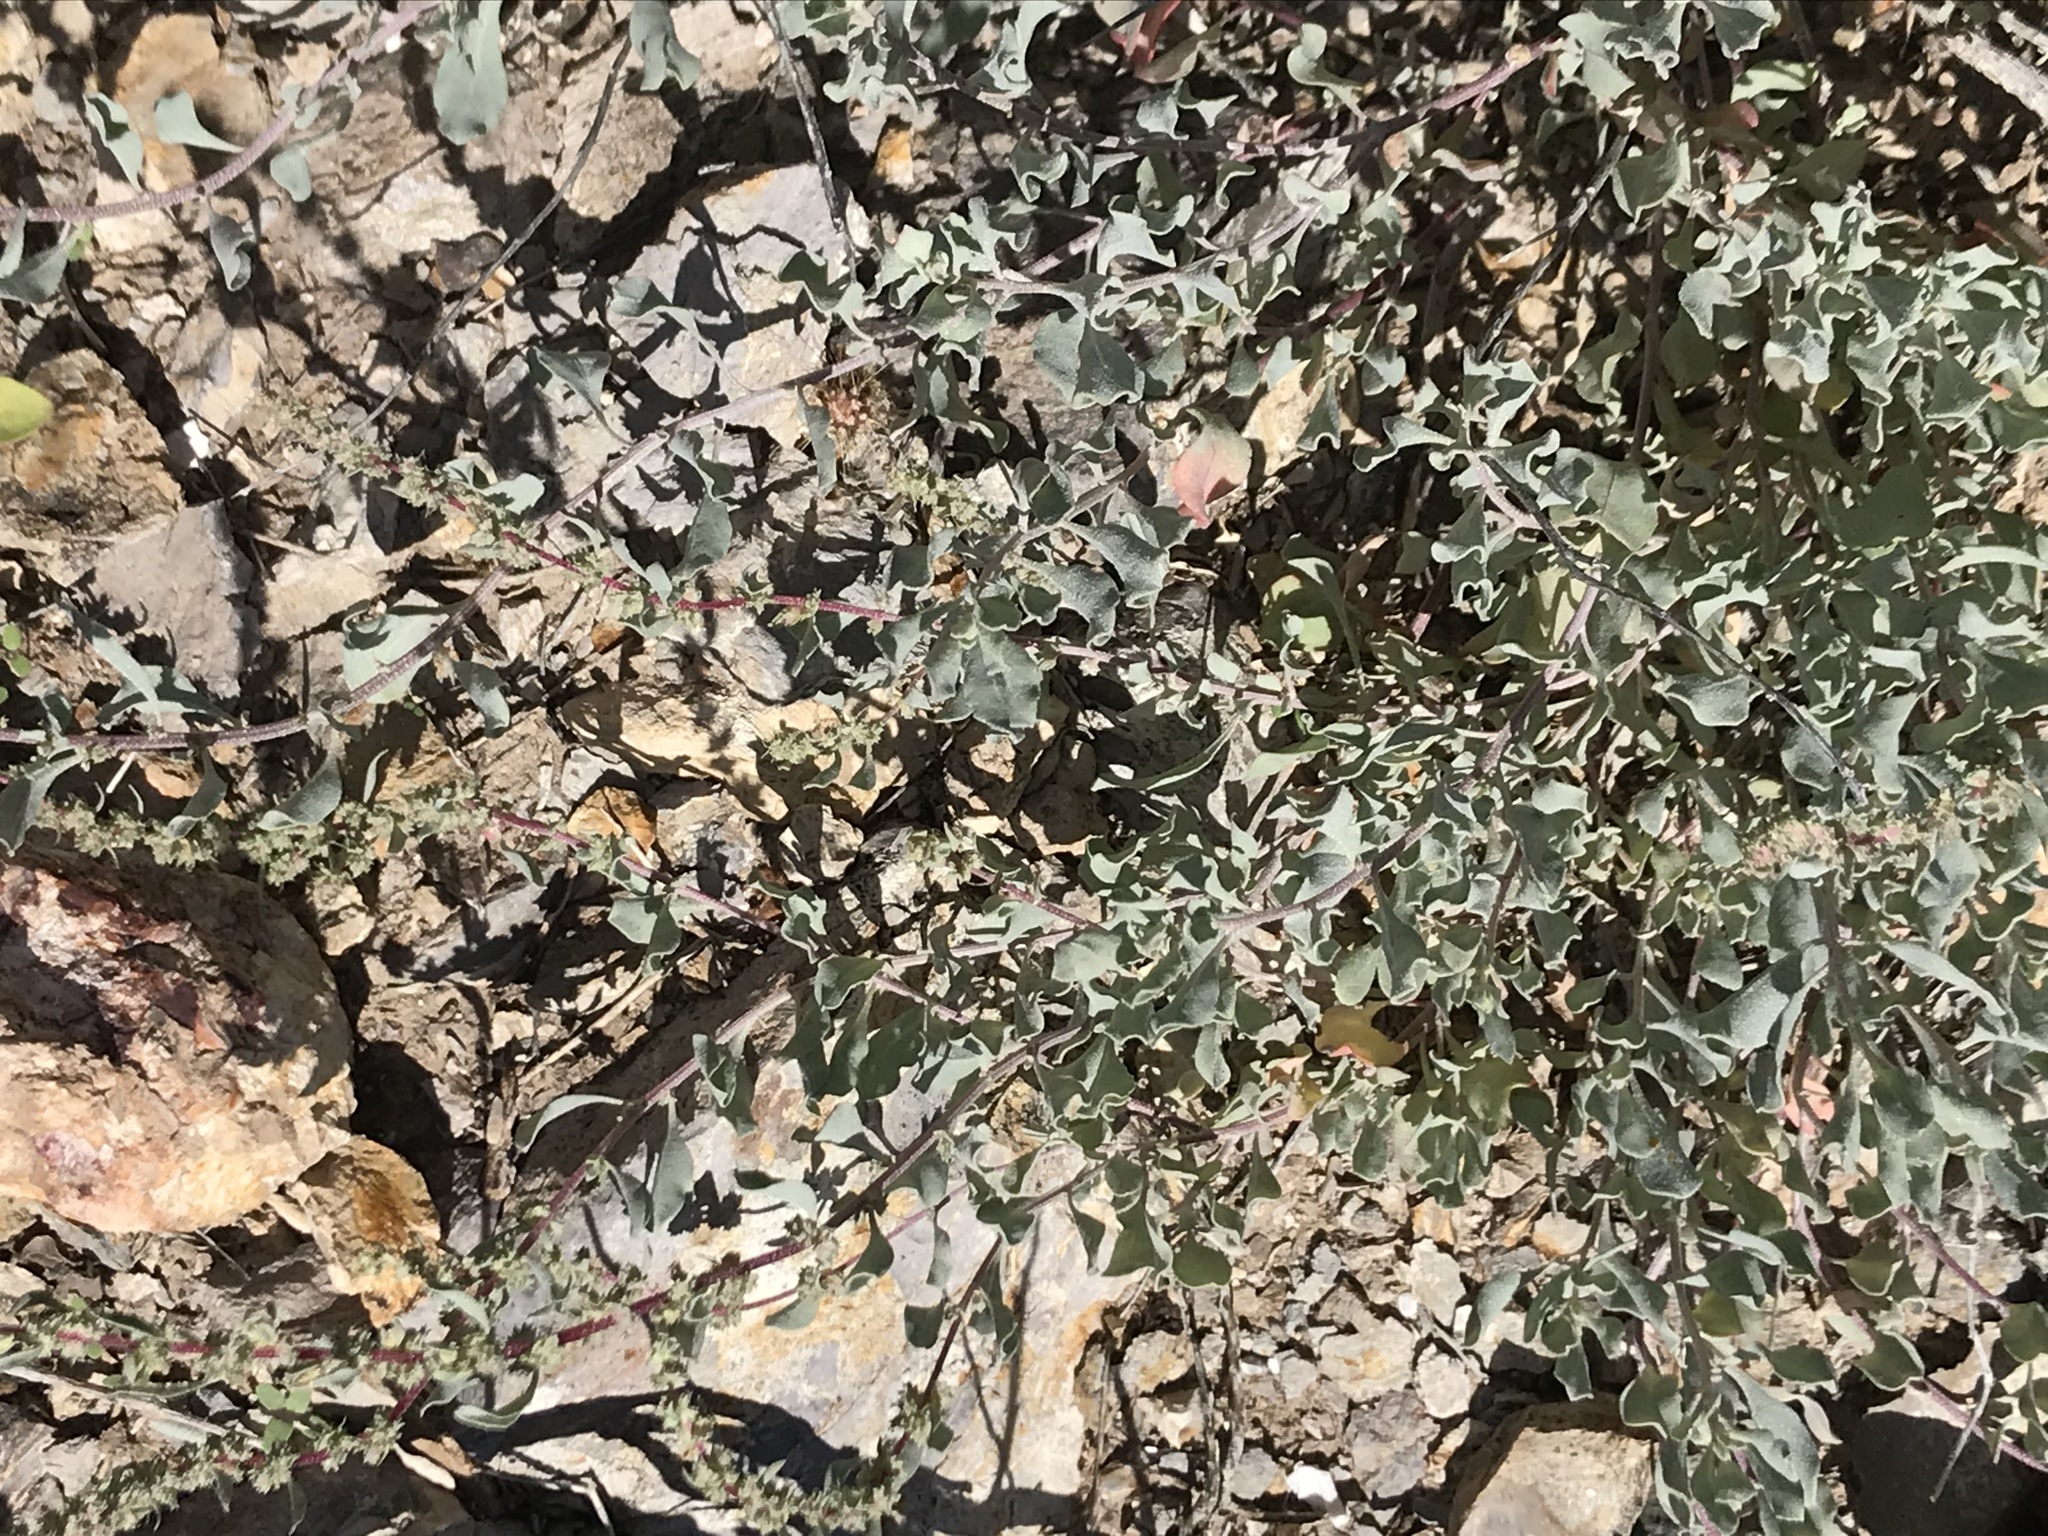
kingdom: Plantae
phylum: Tracheophyta
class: Magnoliopsida
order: Caryophyllales
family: Amaranthaceae
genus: Atriplex
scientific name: Atriplex barclayana
